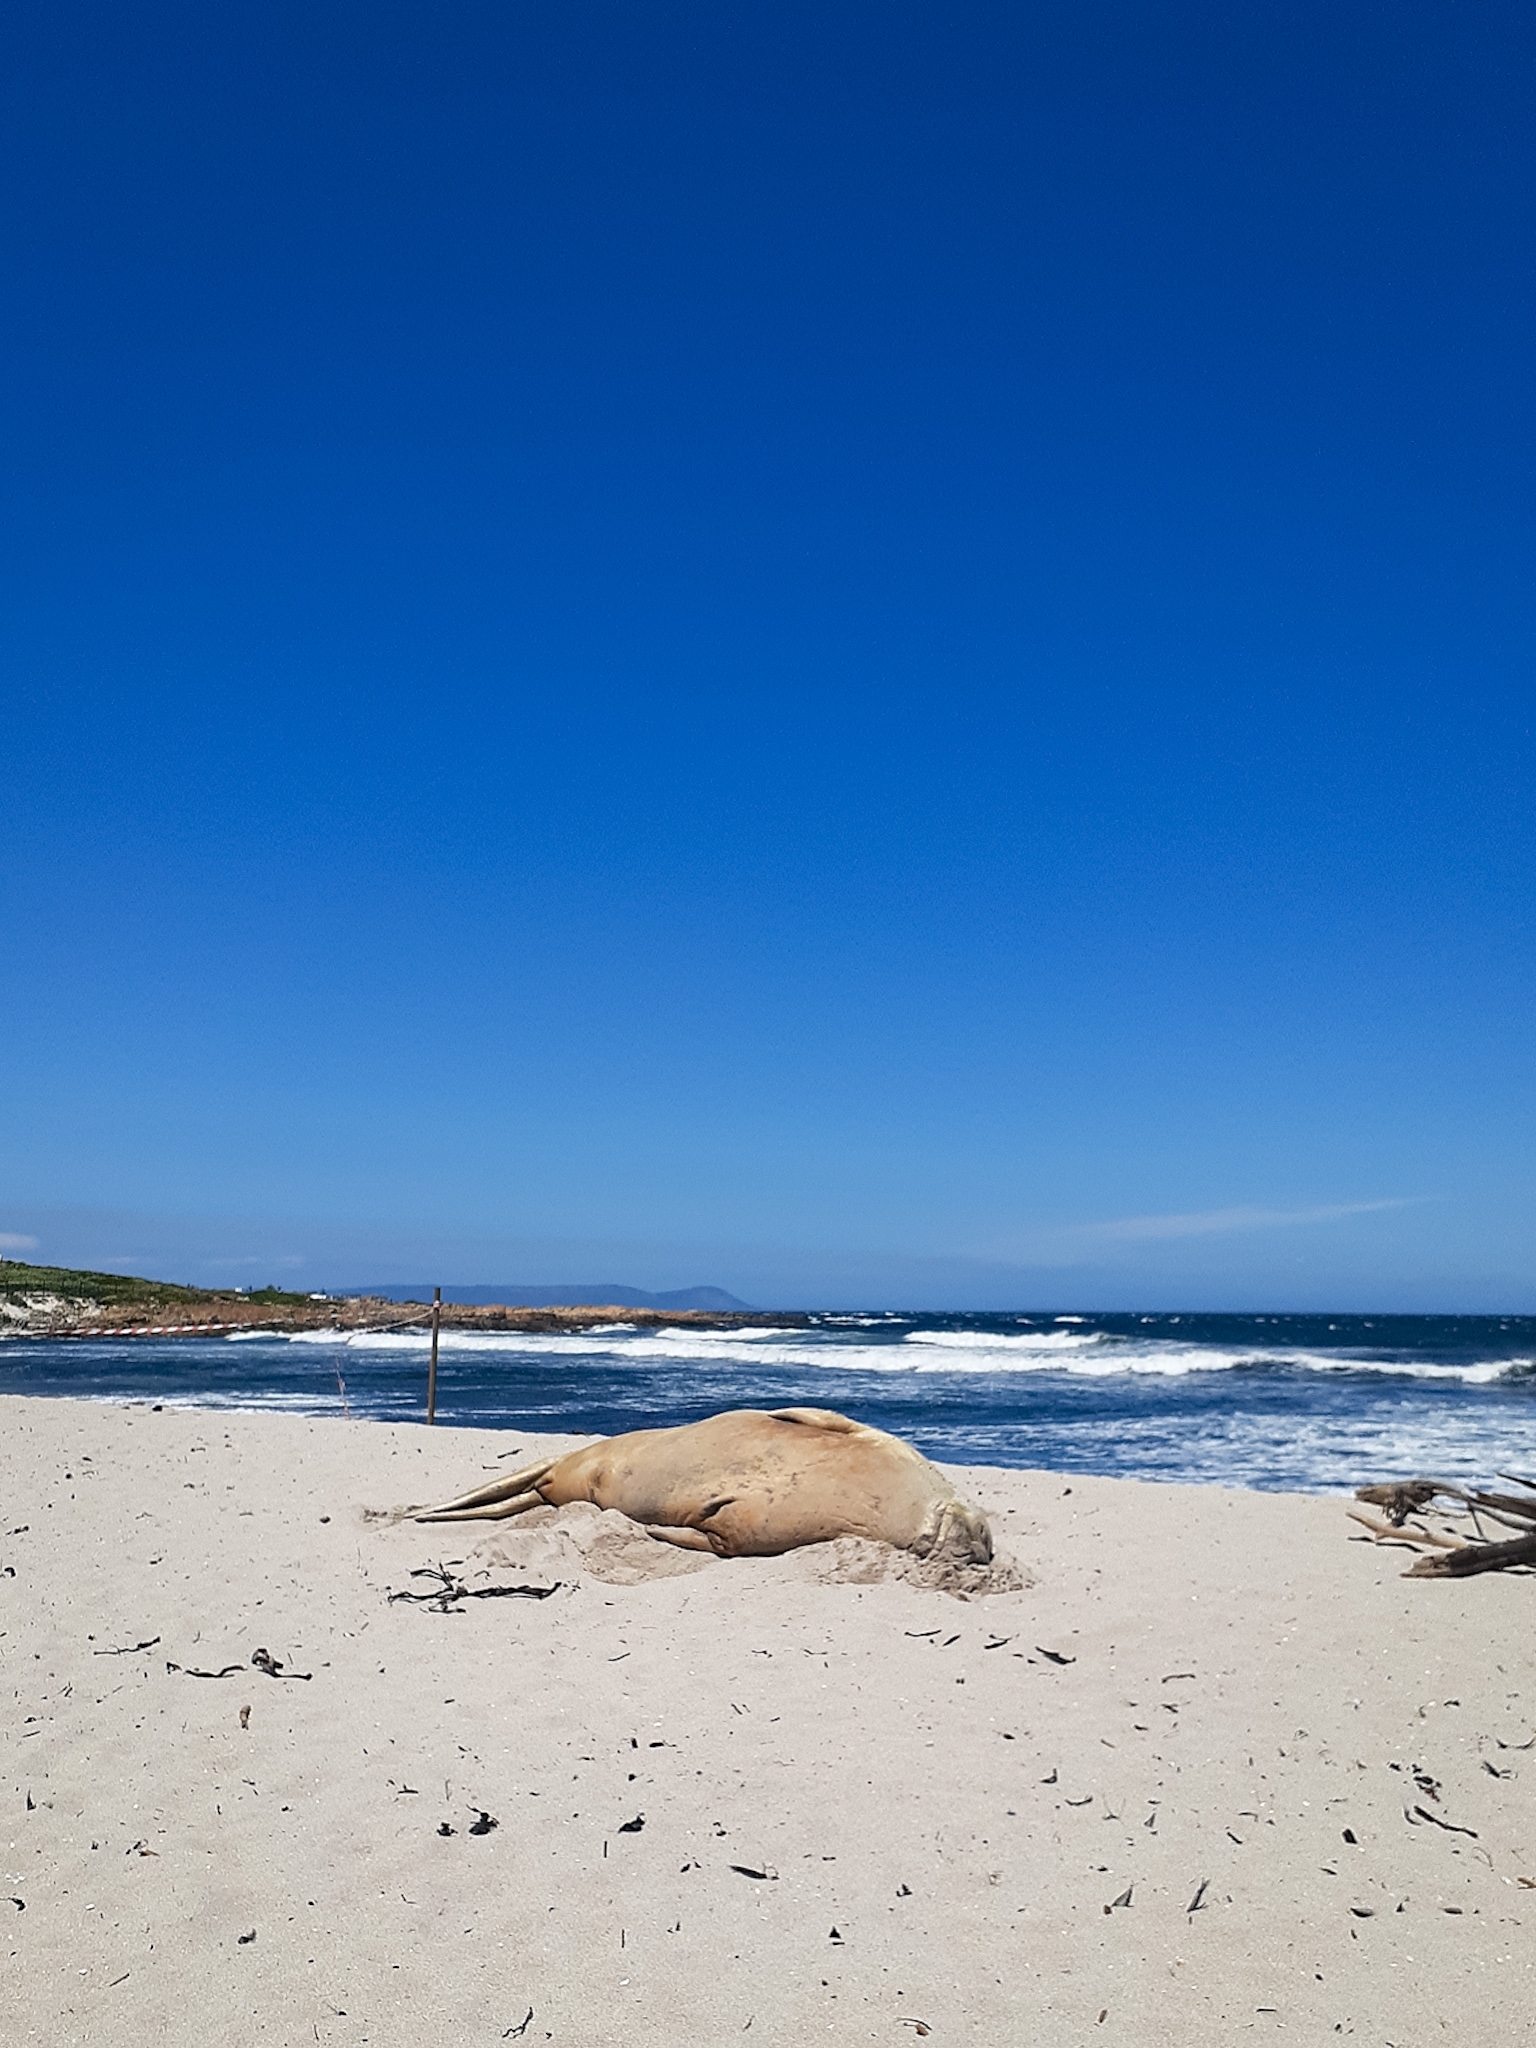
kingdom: Animalia
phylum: Chordata
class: Mammalia
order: Carnivora
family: Phocidae
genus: Mirounga
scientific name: Mirounga leonina
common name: Southern elephant seal
